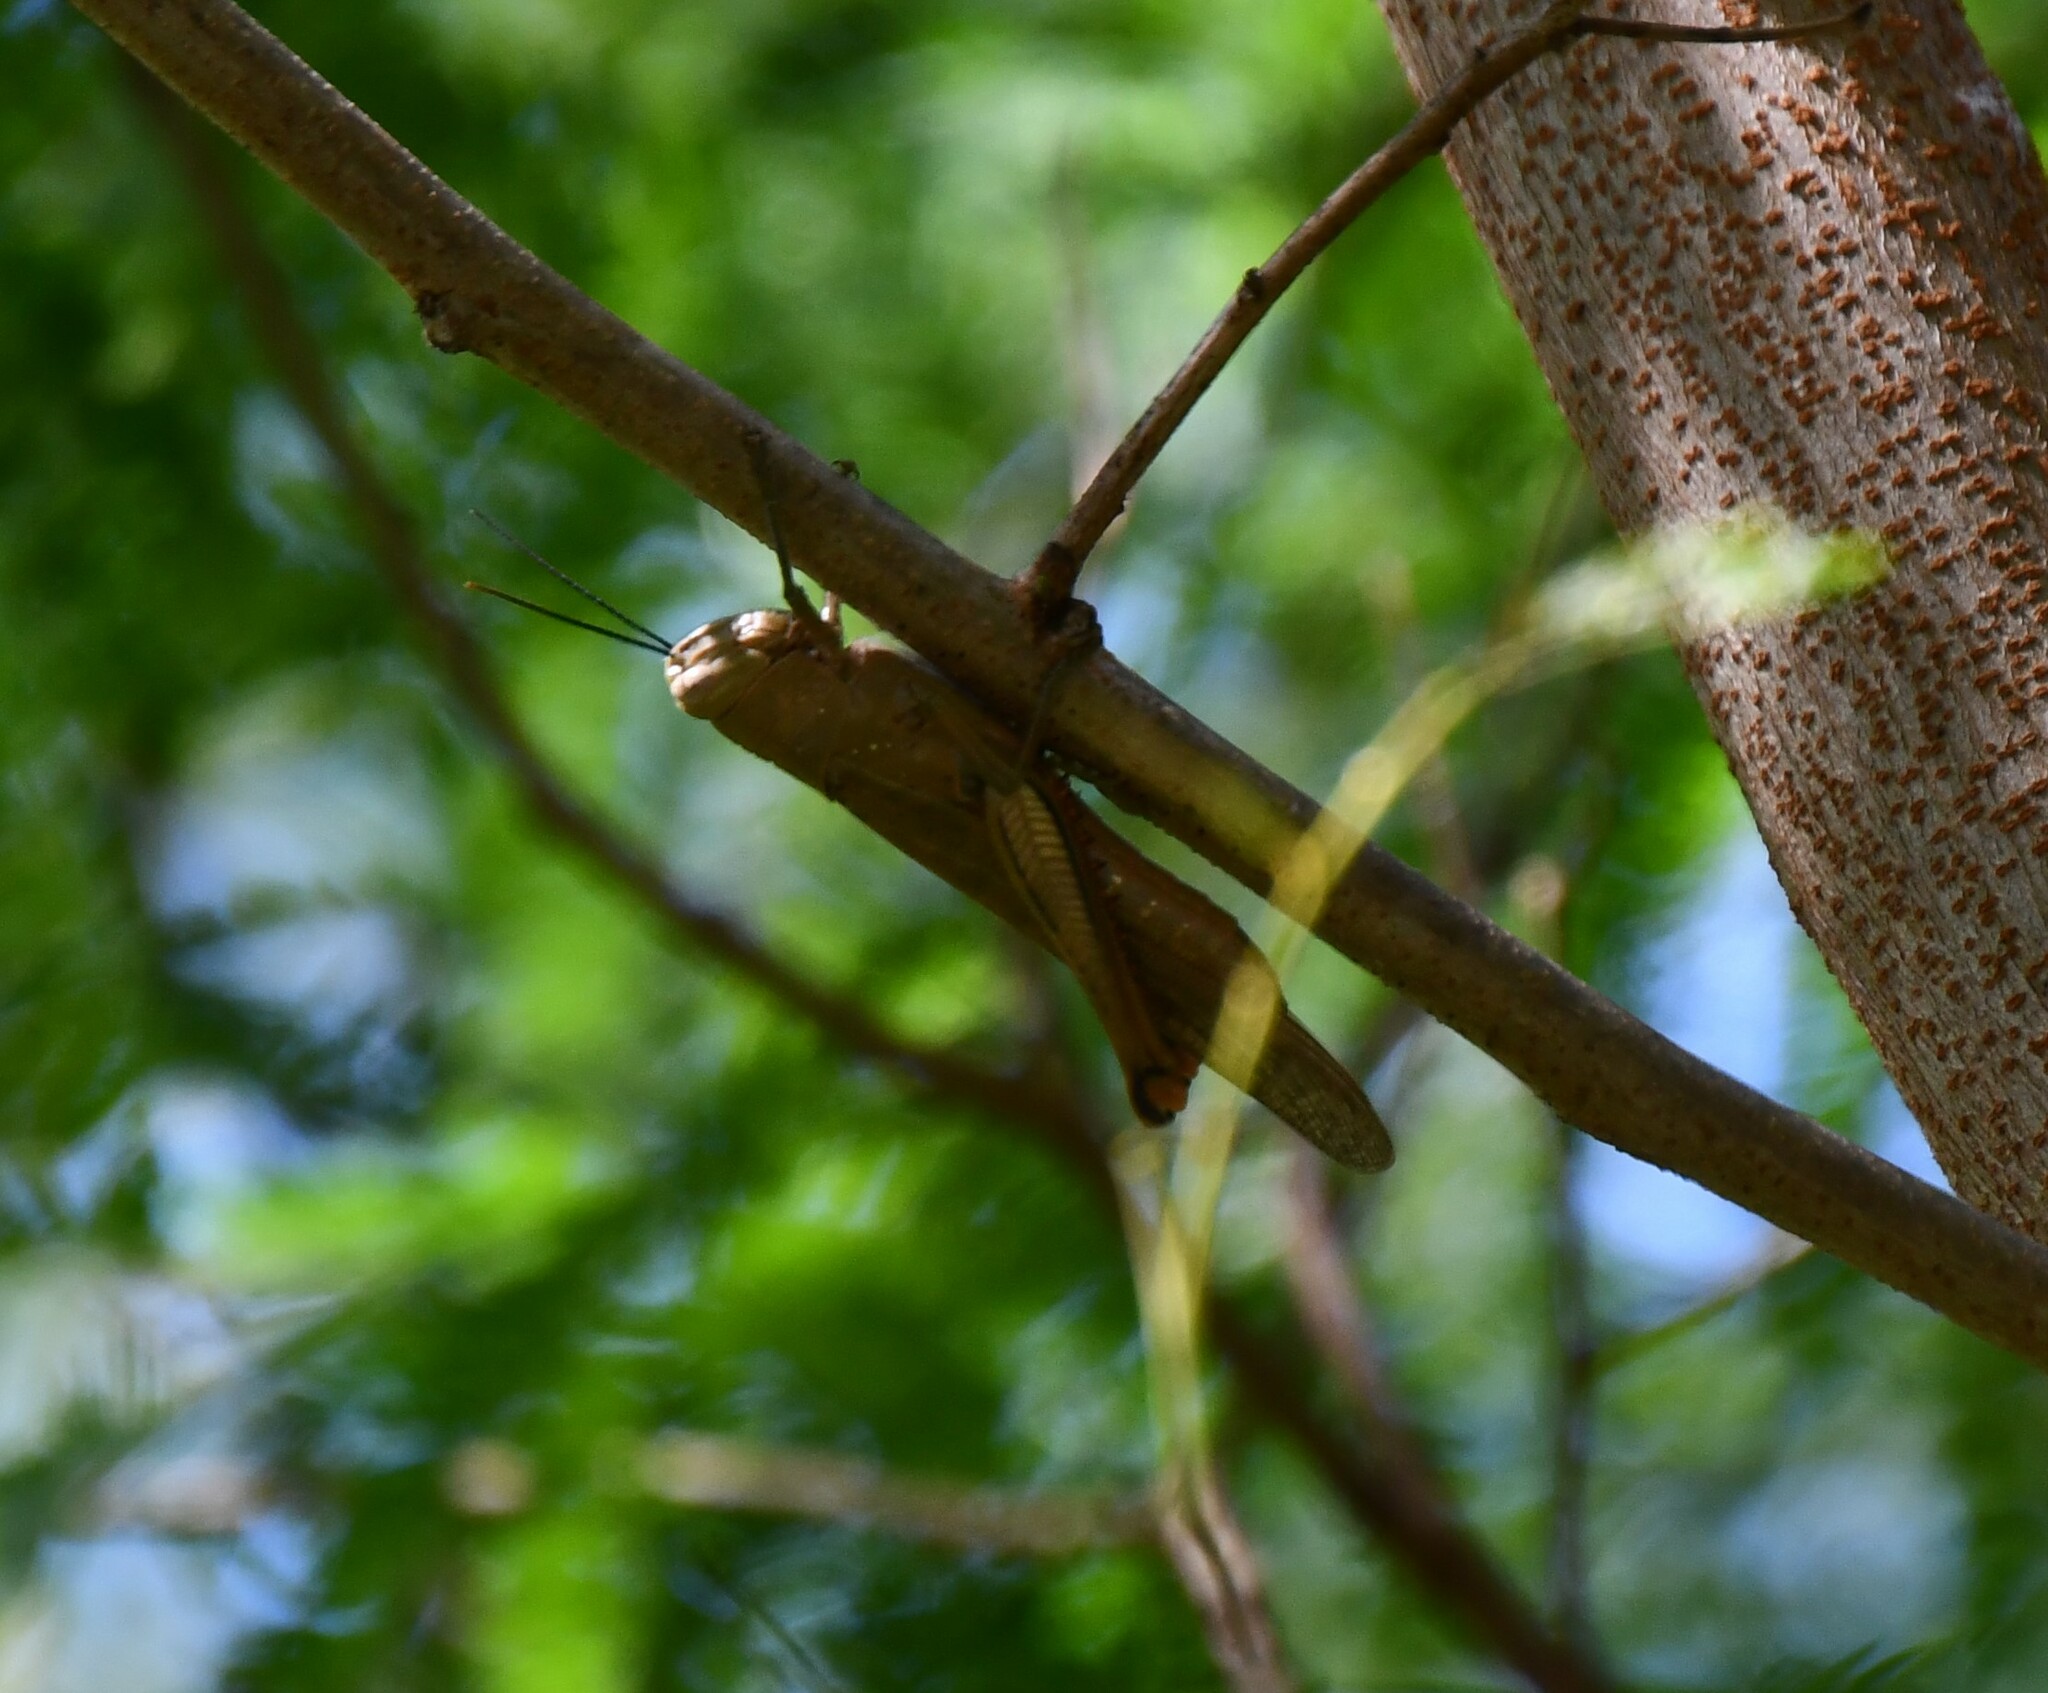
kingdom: Animalia
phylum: Arthropoda
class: Insecta
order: Orthoptera
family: Acrididae
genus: Valanga
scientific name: Valanga irregularis
